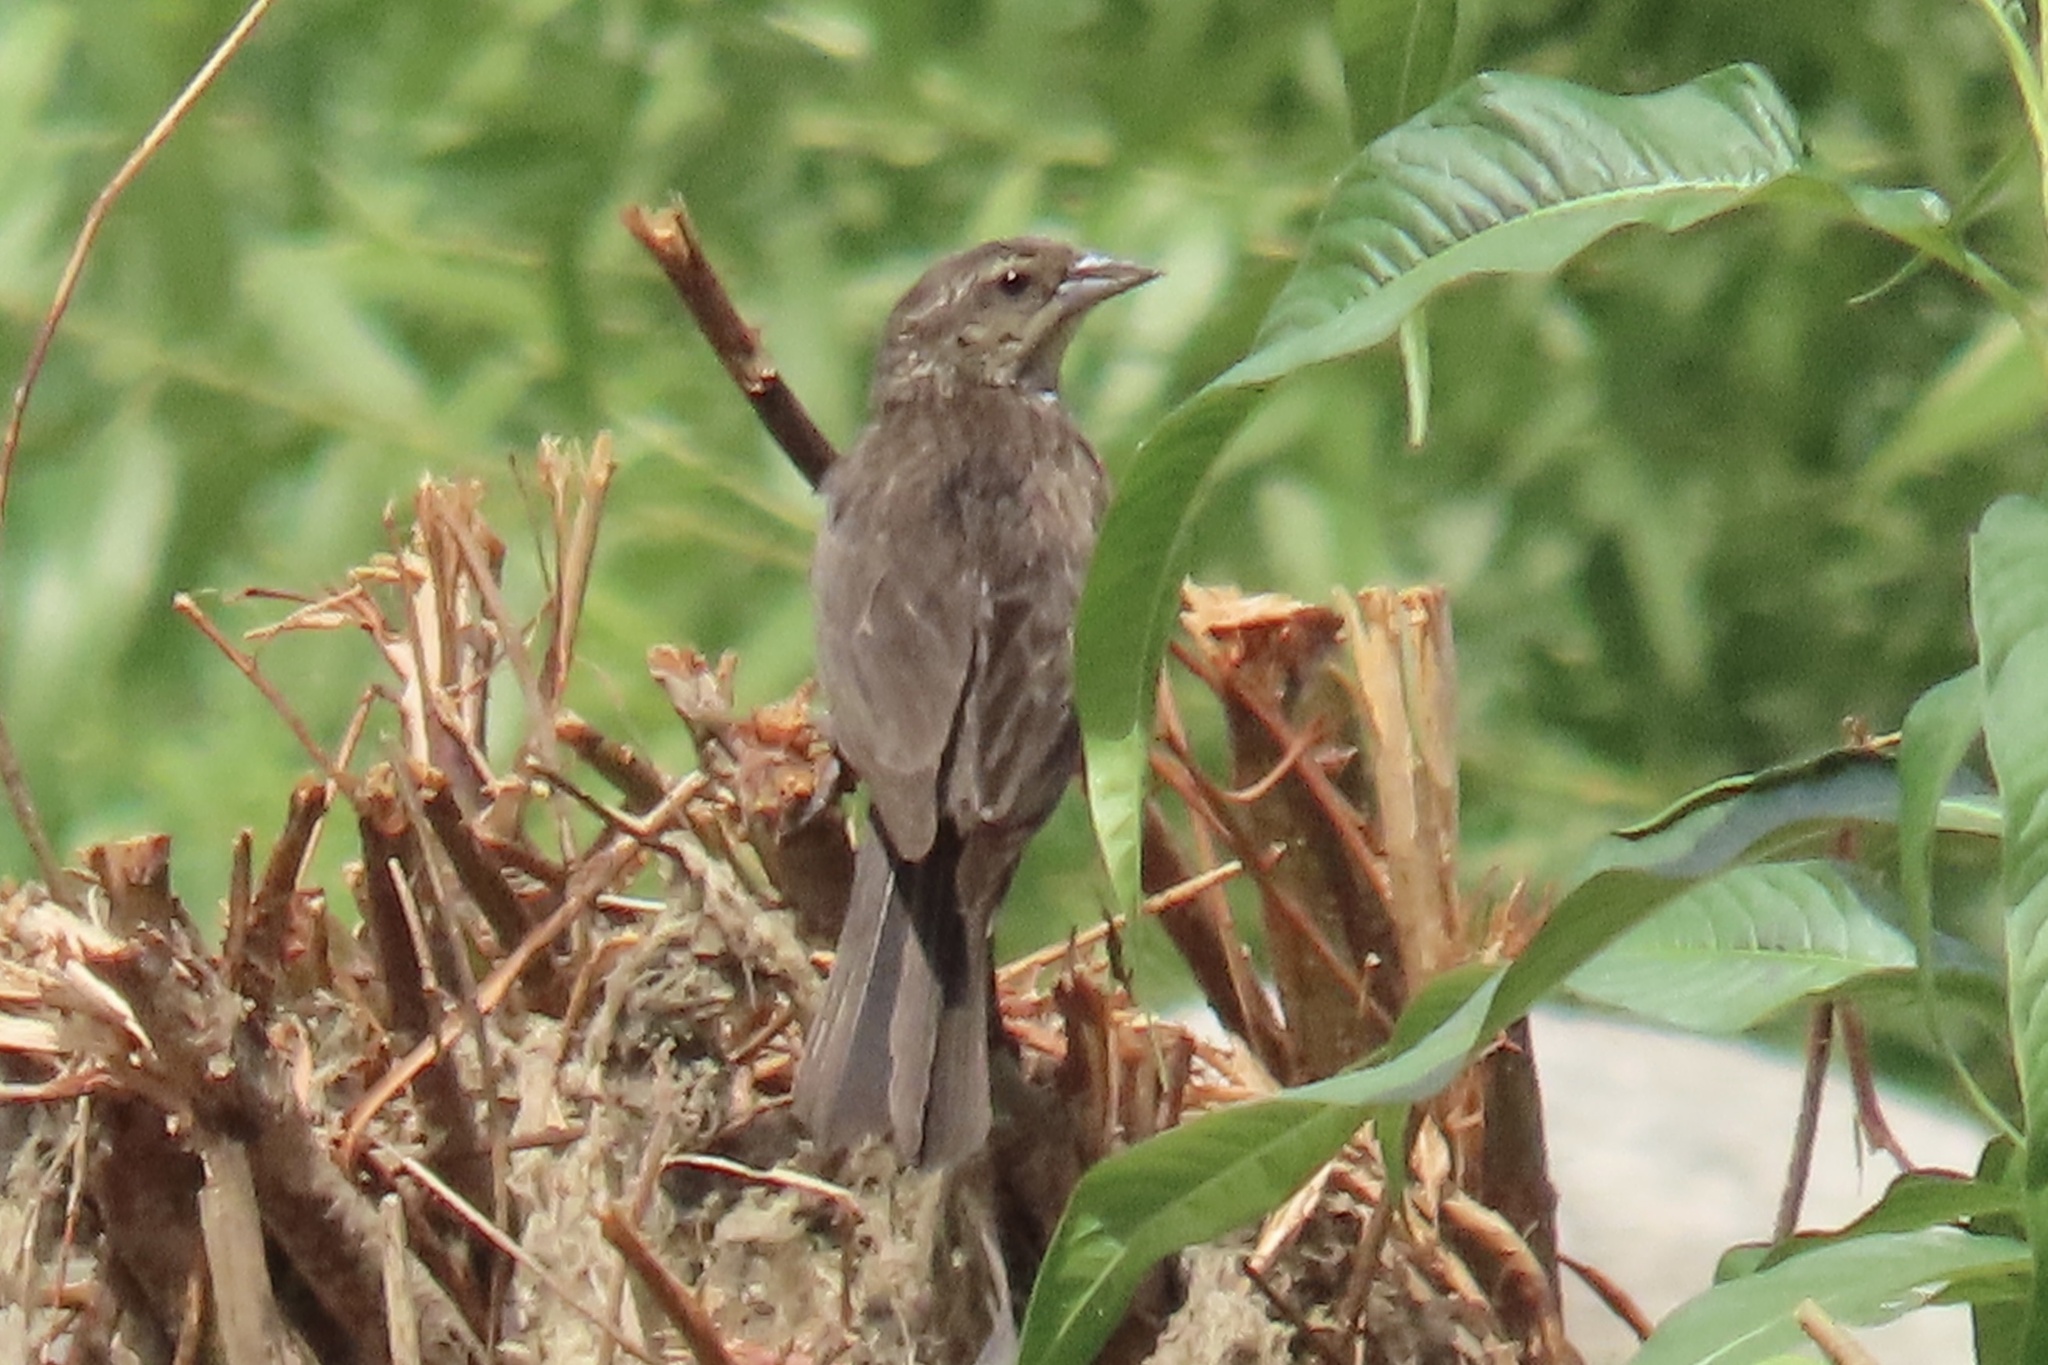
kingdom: Animalia
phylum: Chordata
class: Aves
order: Passeriformes
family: Icteridae
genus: Agelaius
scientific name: Agelaius phoeniceus
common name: Red-winged blackbird
